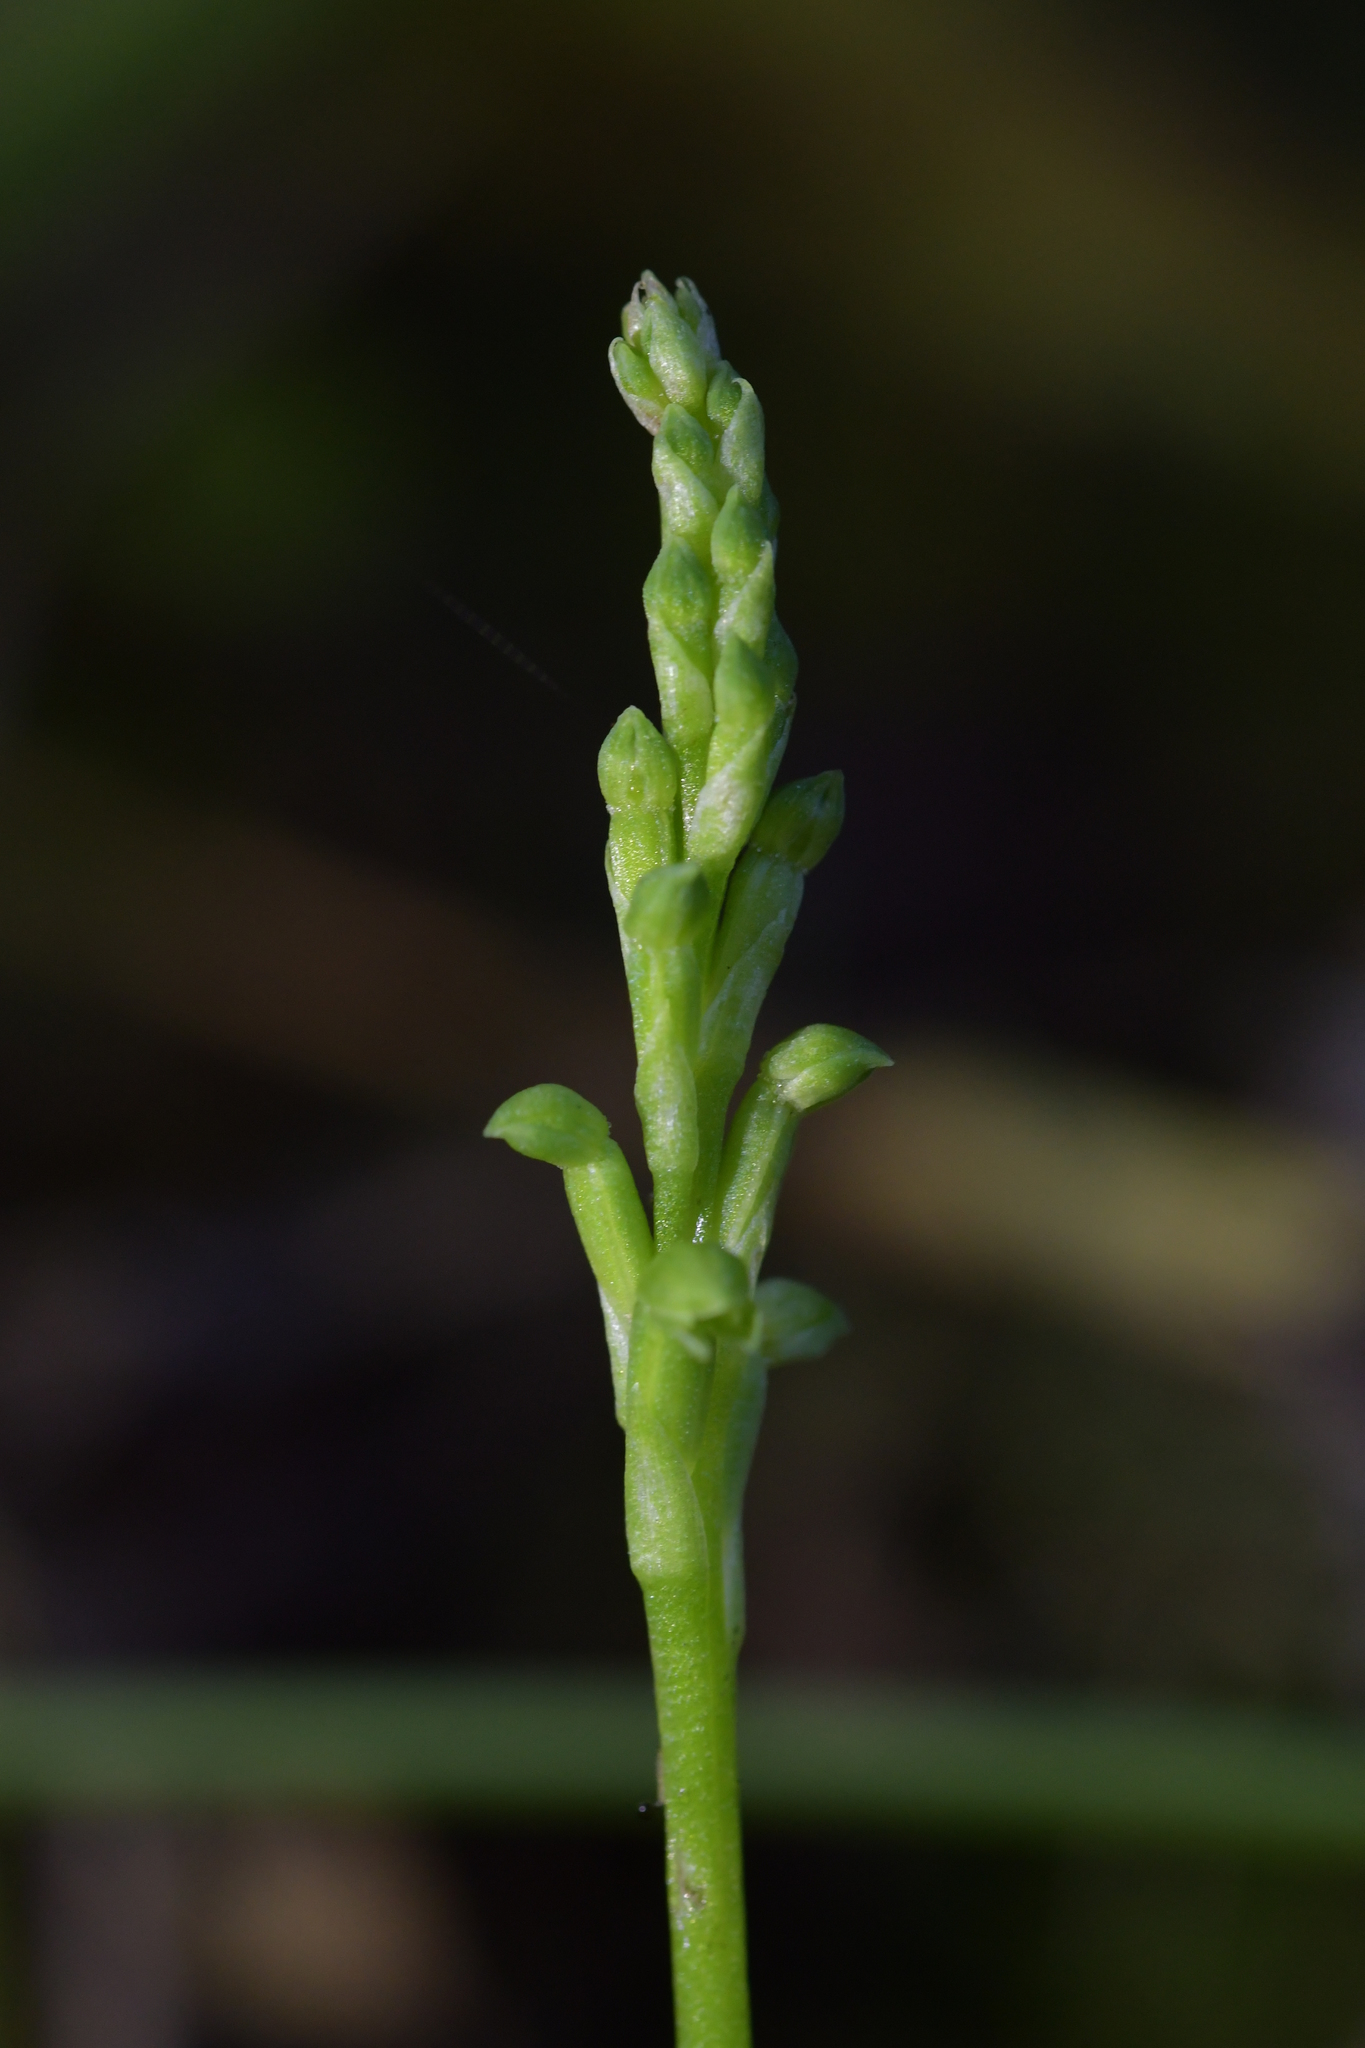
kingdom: Plantae
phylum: Tracheophyta
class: Liliopsida
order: Asparagales
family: Orchidaceae
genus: Microtis
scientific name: Microtis unifolia
